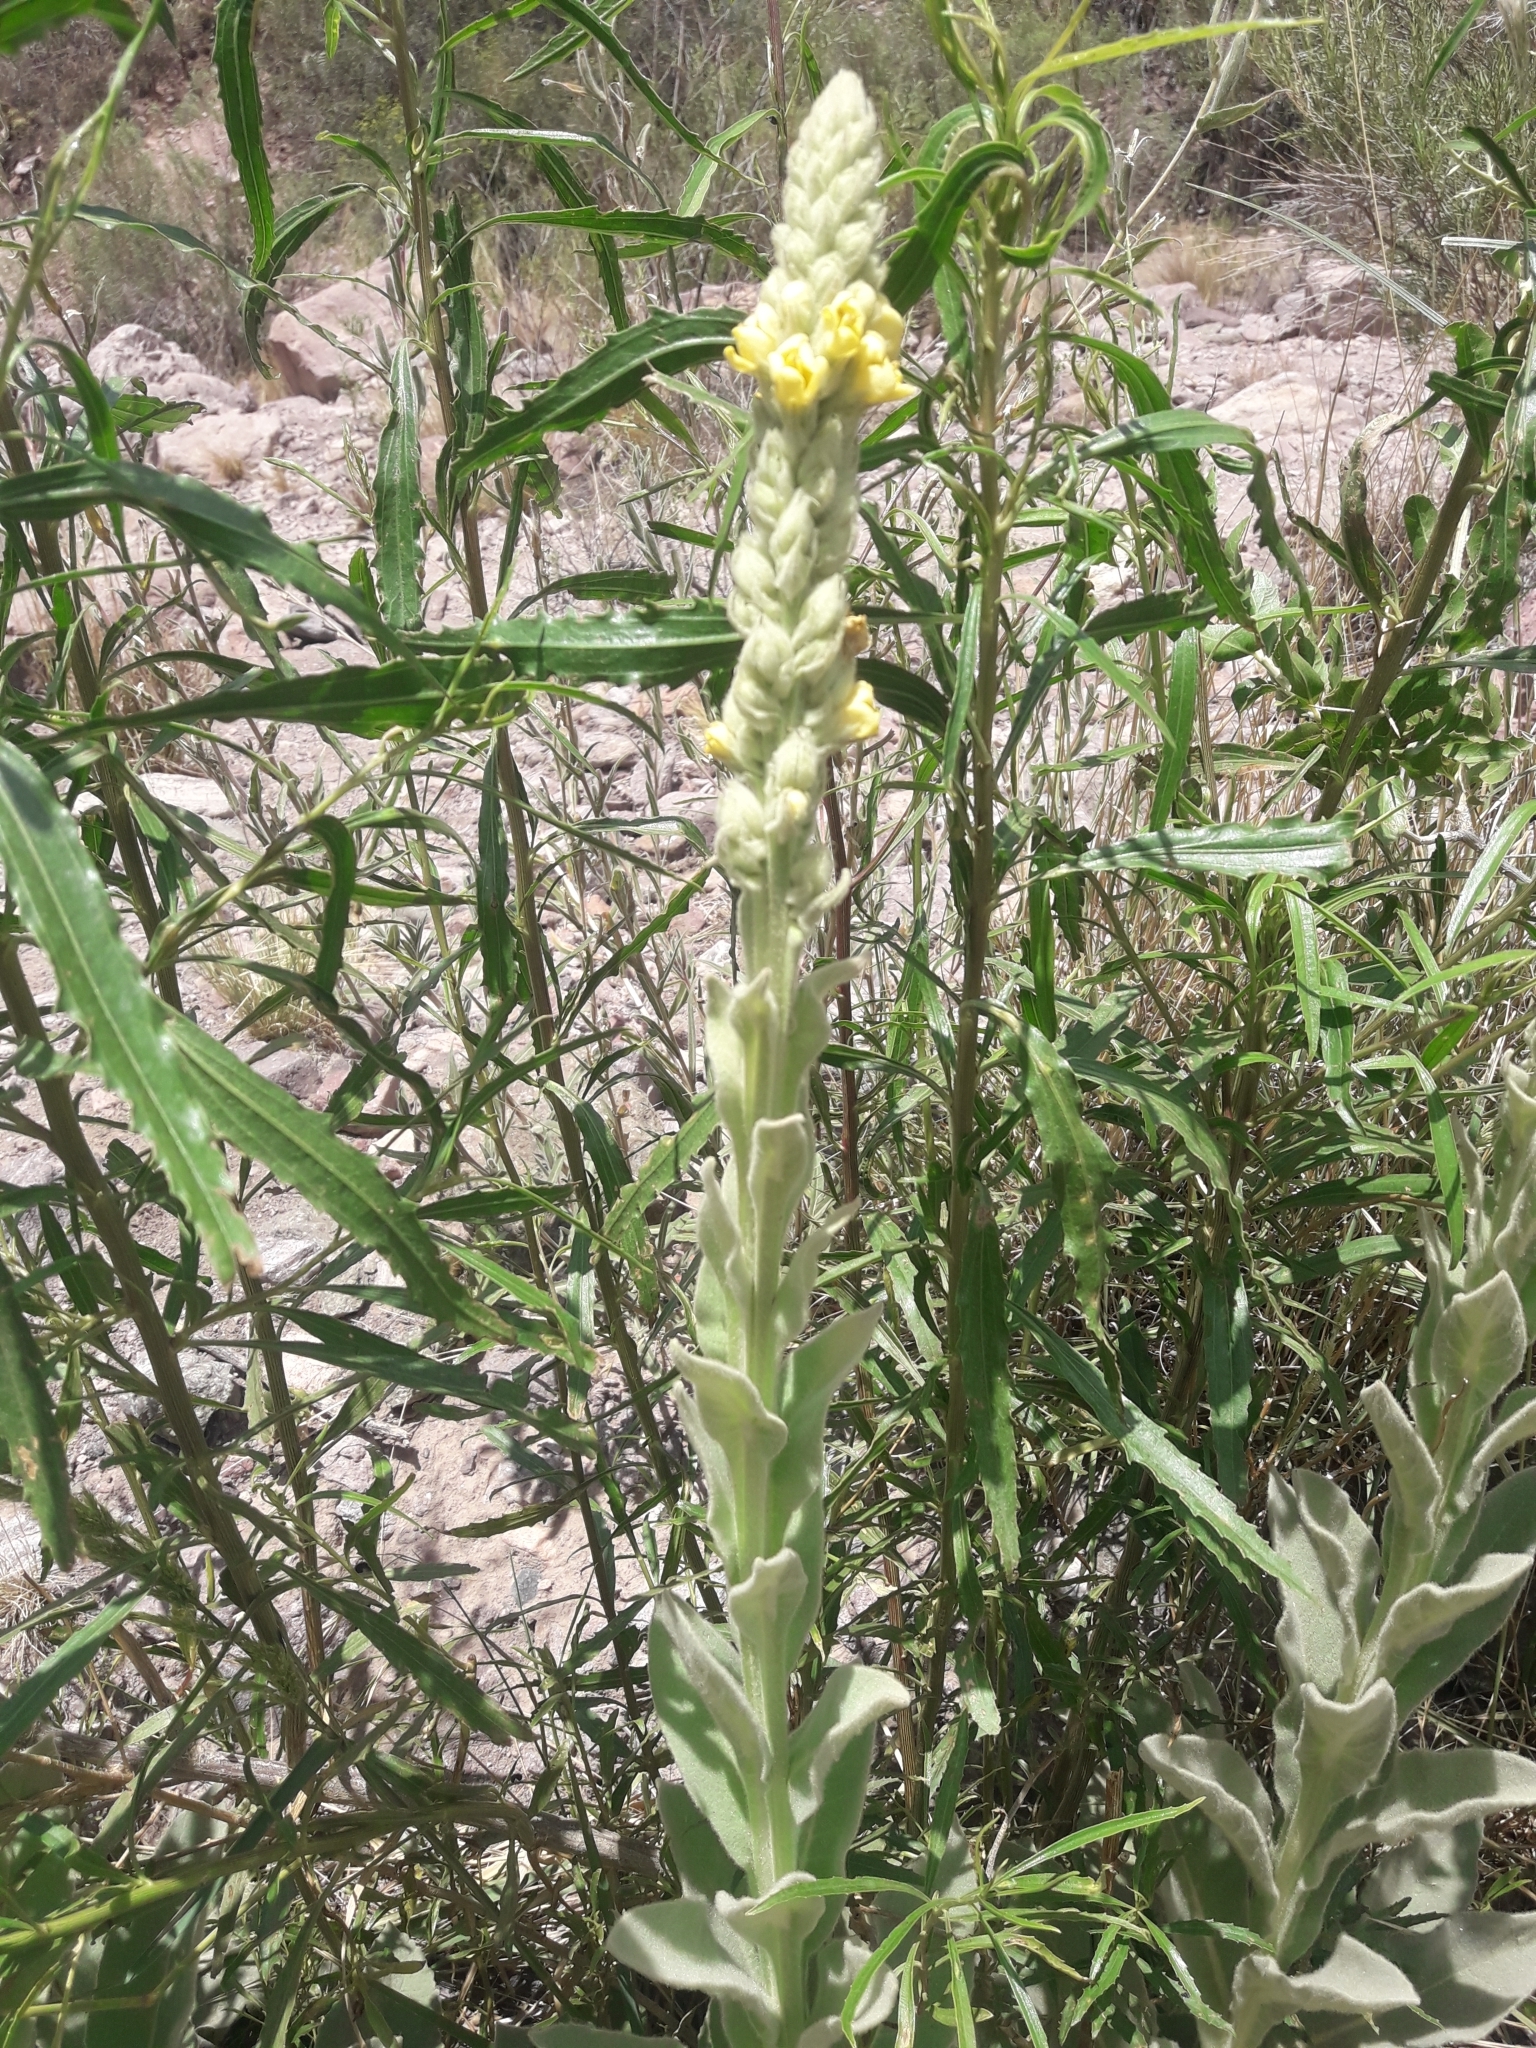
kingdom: Plantae
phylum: Tracheophyta
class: Magnoliopsida
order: Lamiales
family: Scrophulariaceae
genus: Verbascum
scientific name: Verbascum thapsus
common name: Common mullein
